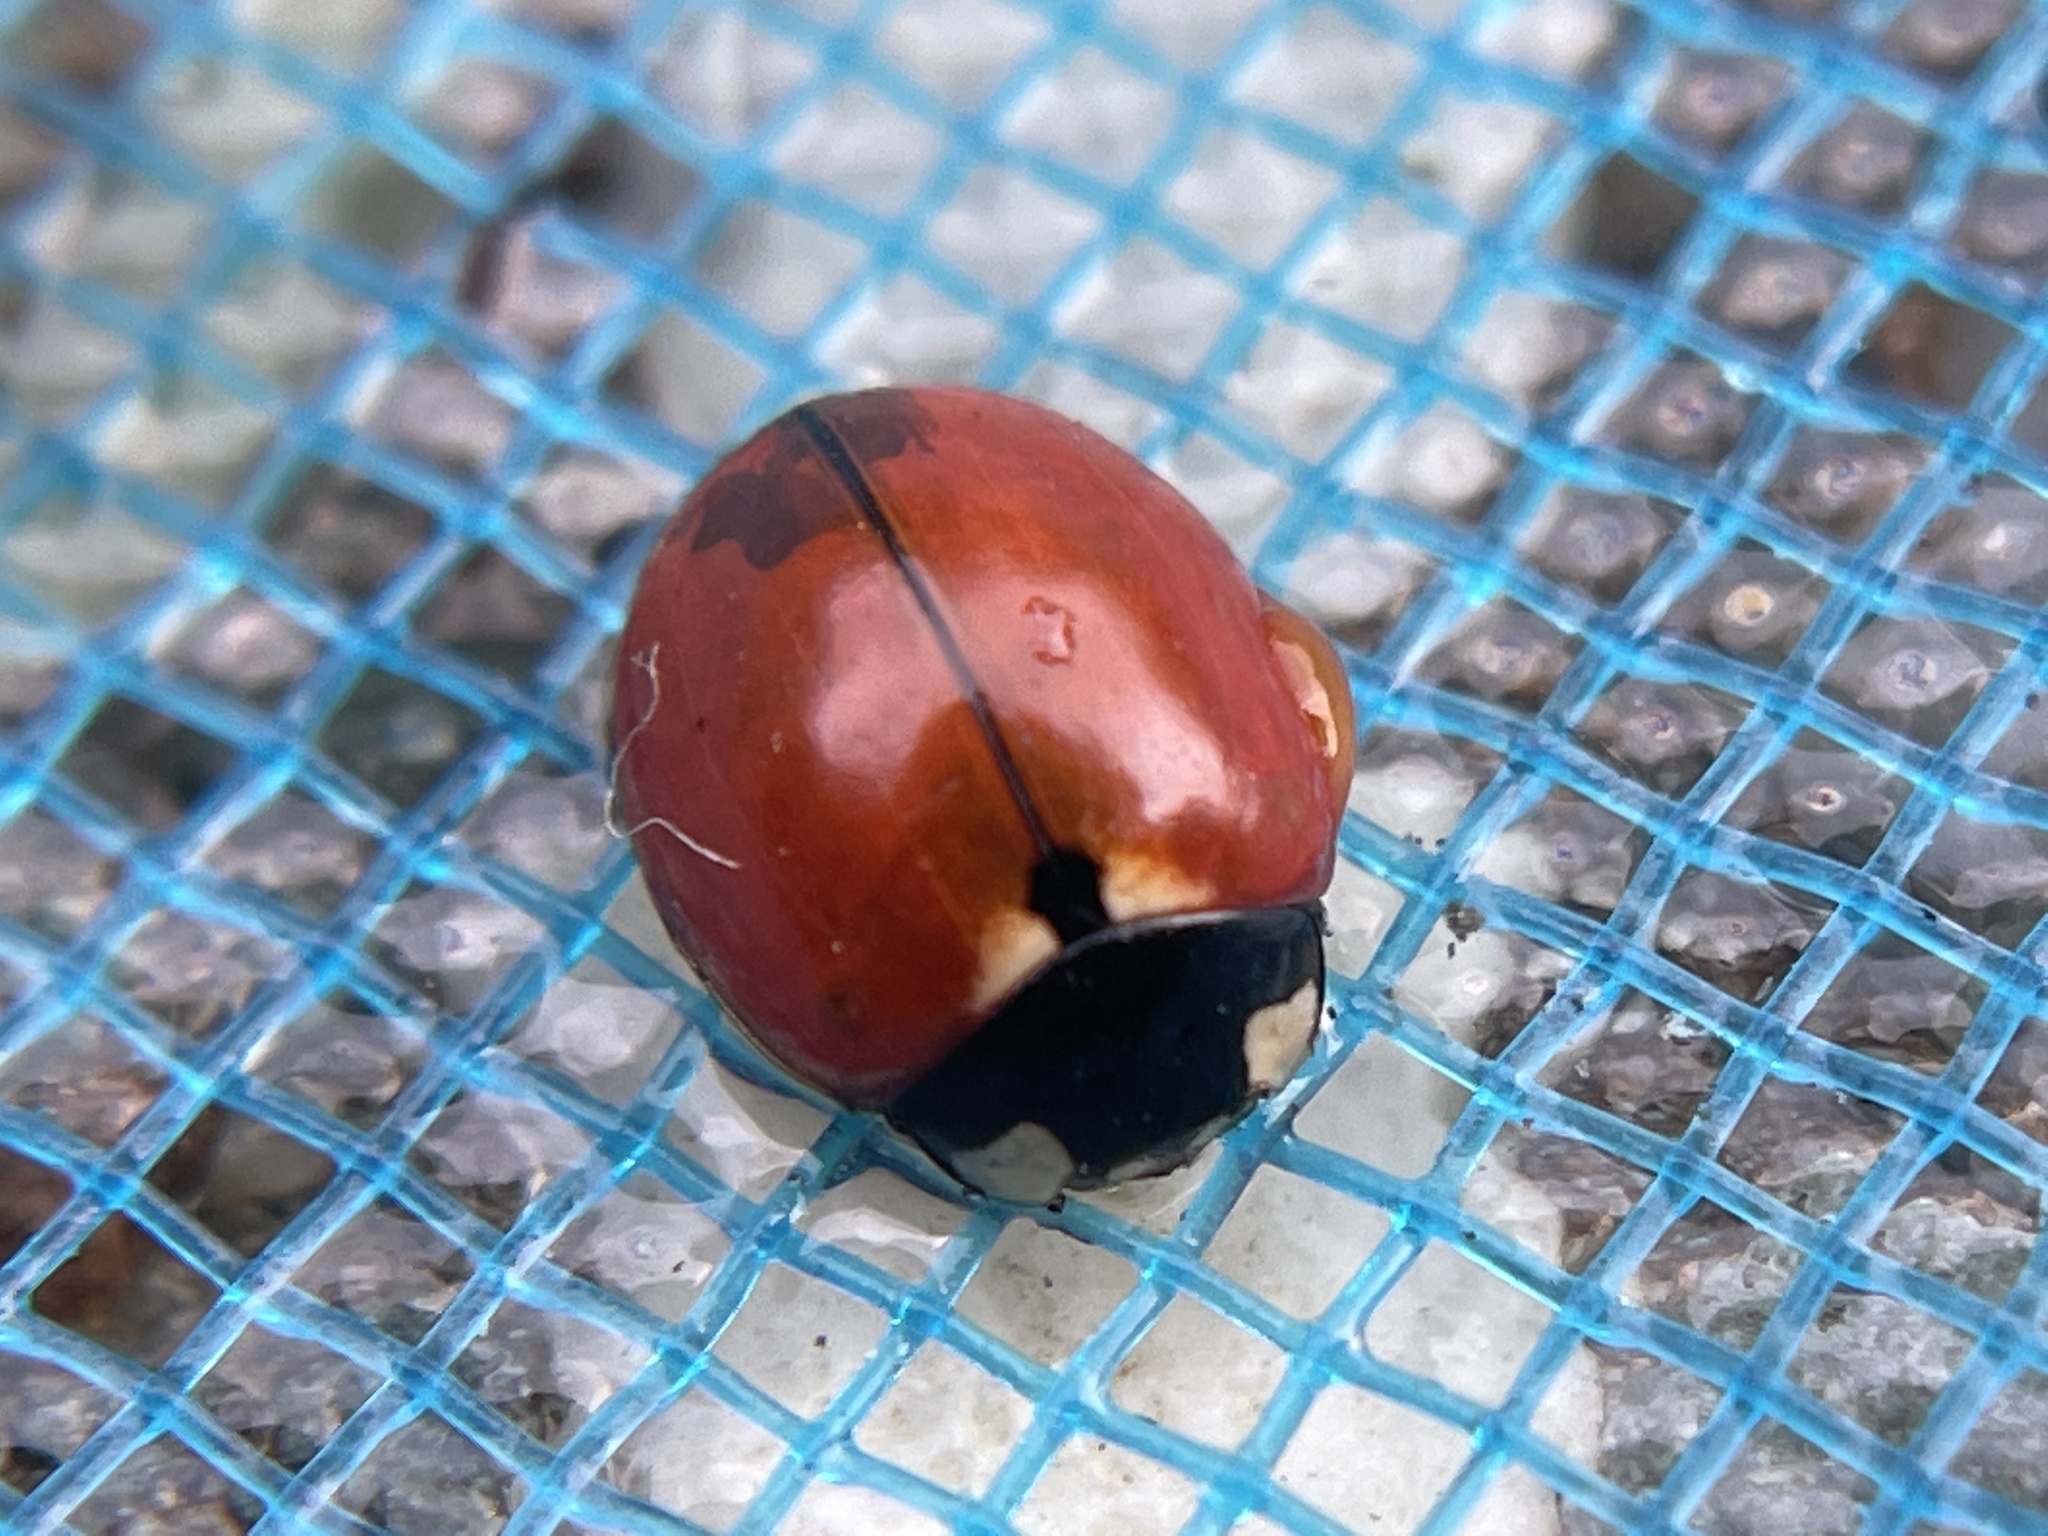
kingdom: Animalia
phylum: Arthropoda
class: Insecta
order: Coleoptera
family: Coccinellidae
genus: Coccinella
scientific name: Coccinella californica
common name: Lady beetle
